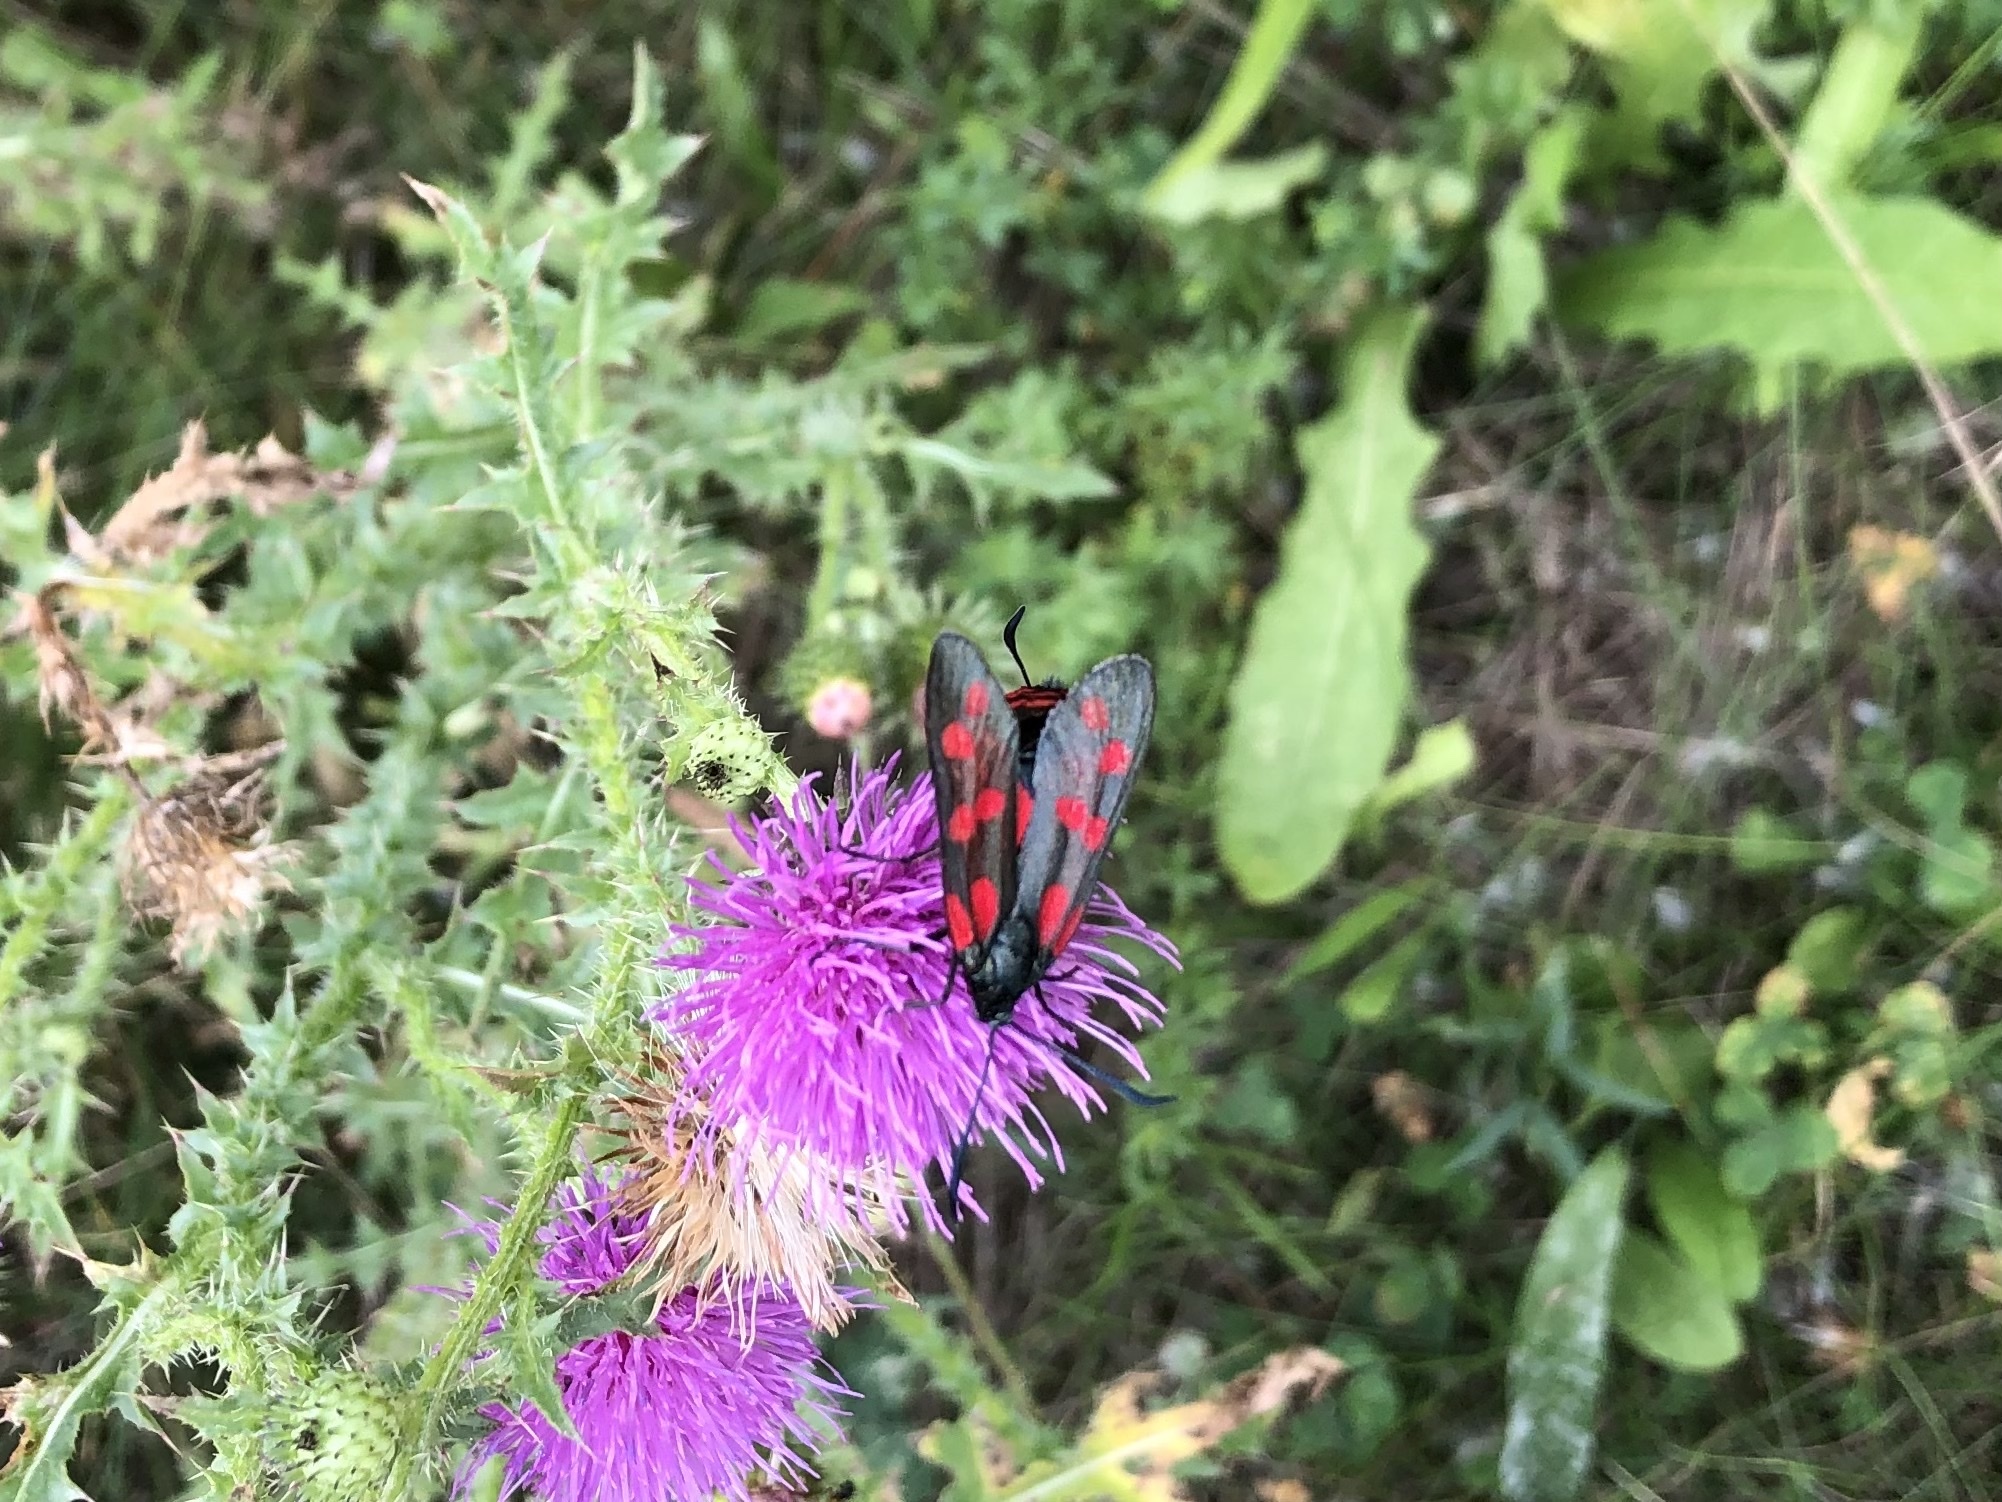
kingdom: Animalia
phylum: Arthropoda
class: Insecta
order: Lepidoptera
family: Zygaenidae
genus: Zygaena
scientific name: Zygaena filipendulae
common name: Six-spot burnet
